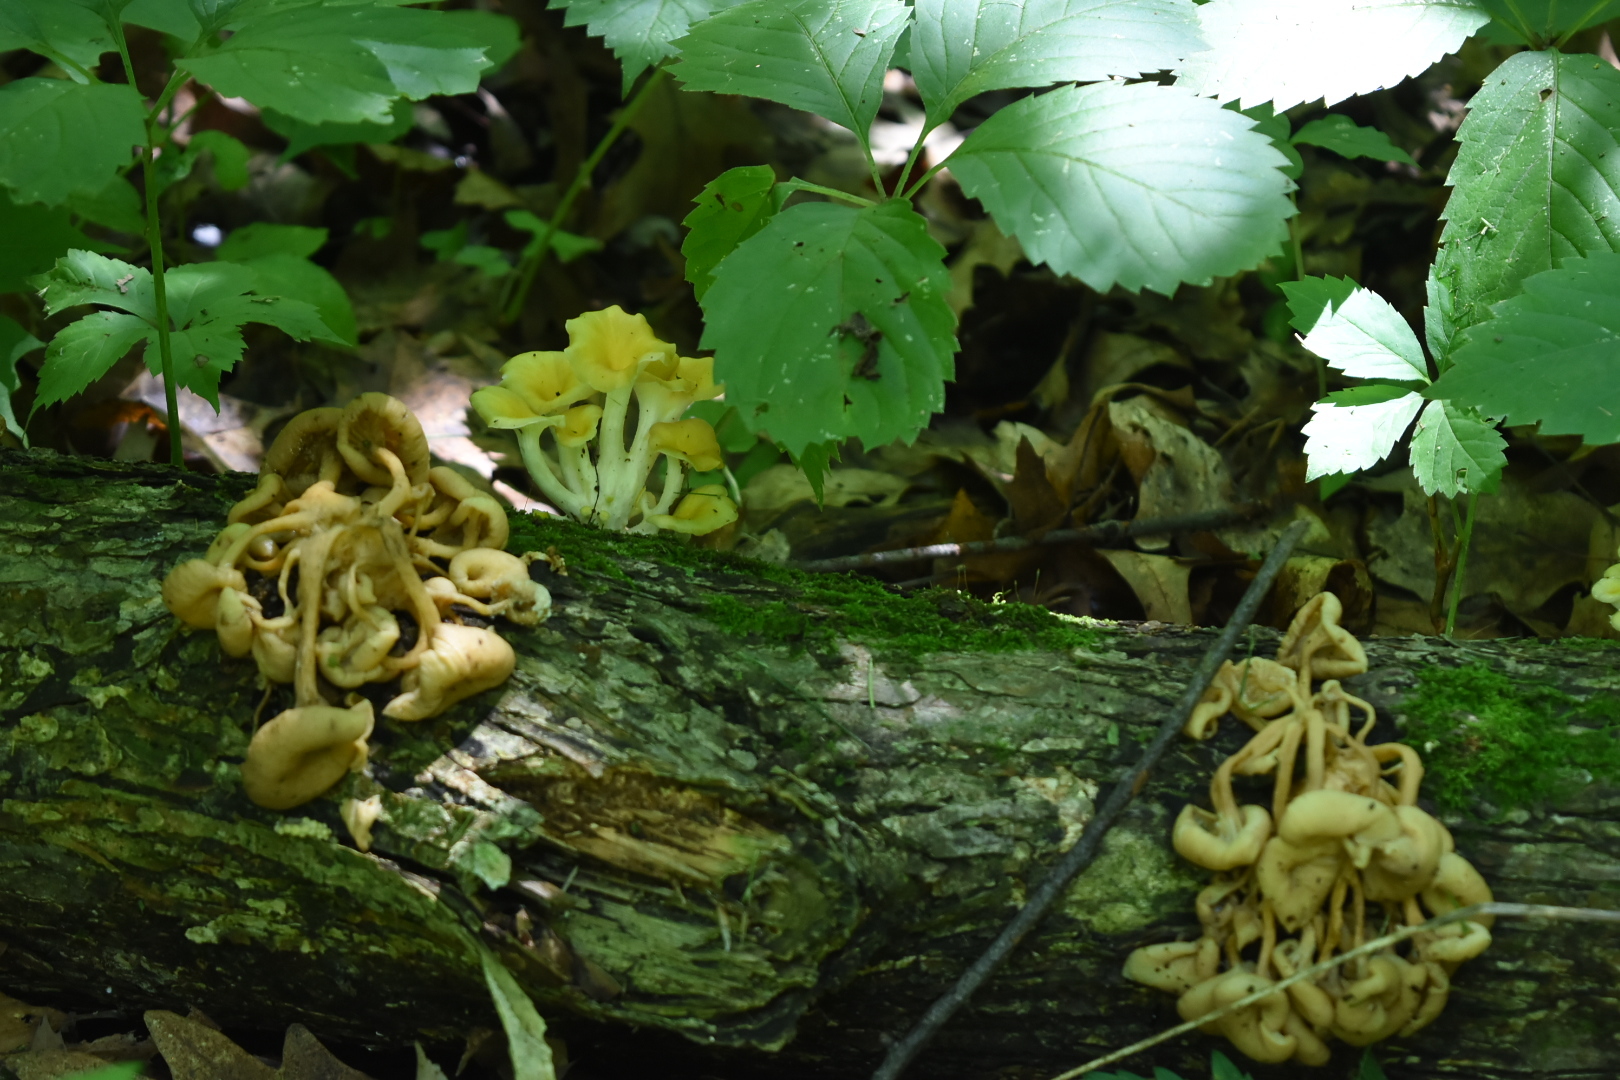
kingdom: Fungi
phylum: Basidiomycota
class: Agaricomycetes
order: Agaricales
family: Pleurotaceae
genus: Pleurotus
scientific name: Pleurotus citrinopileatus
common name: Golden oyster mushroom
